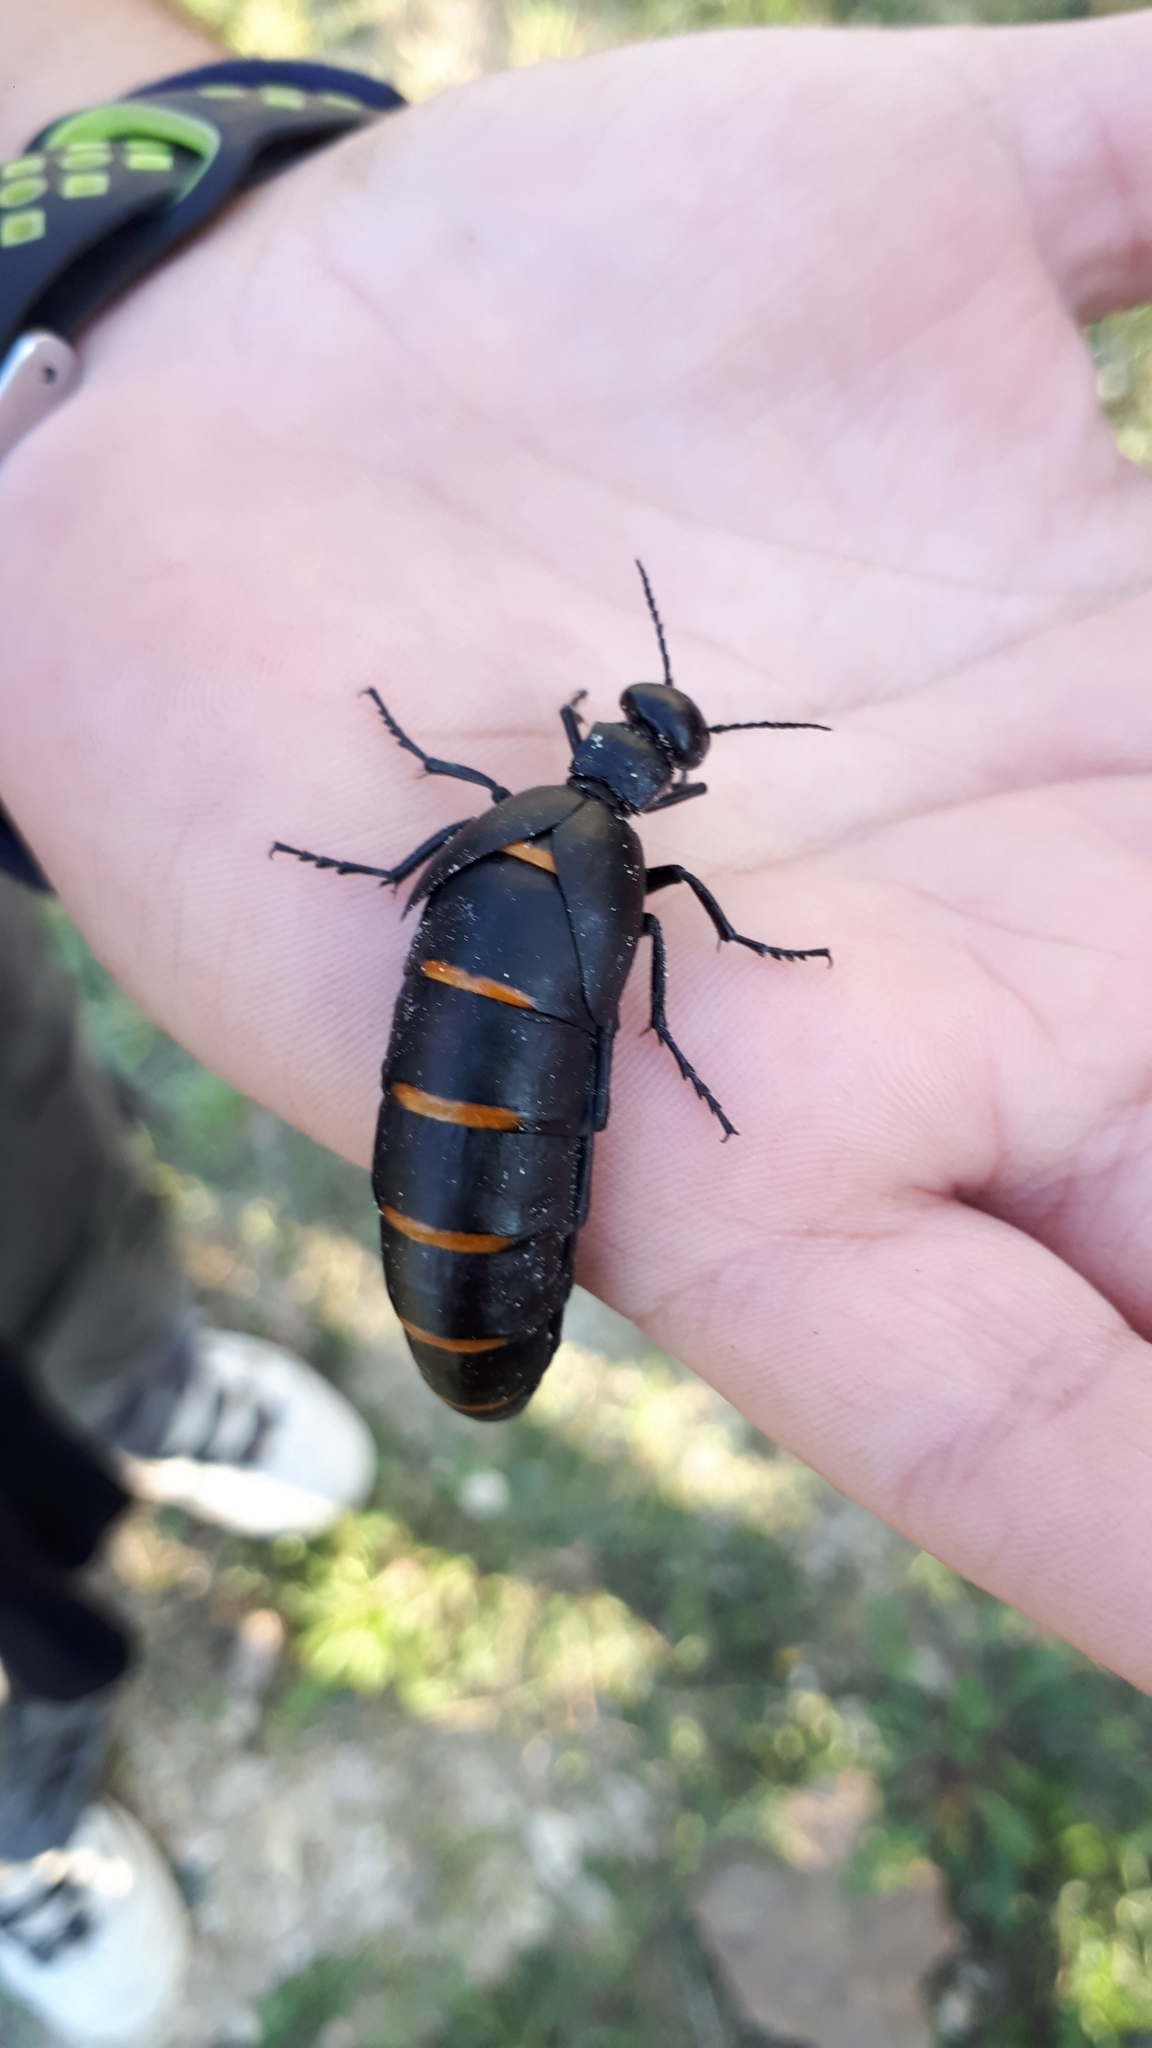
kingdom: Animalia
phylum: Arthropoda
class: Insecta
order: Coleoptera
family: Meloidae
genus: Berberomeloe
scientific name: Berberomeloe majalis
